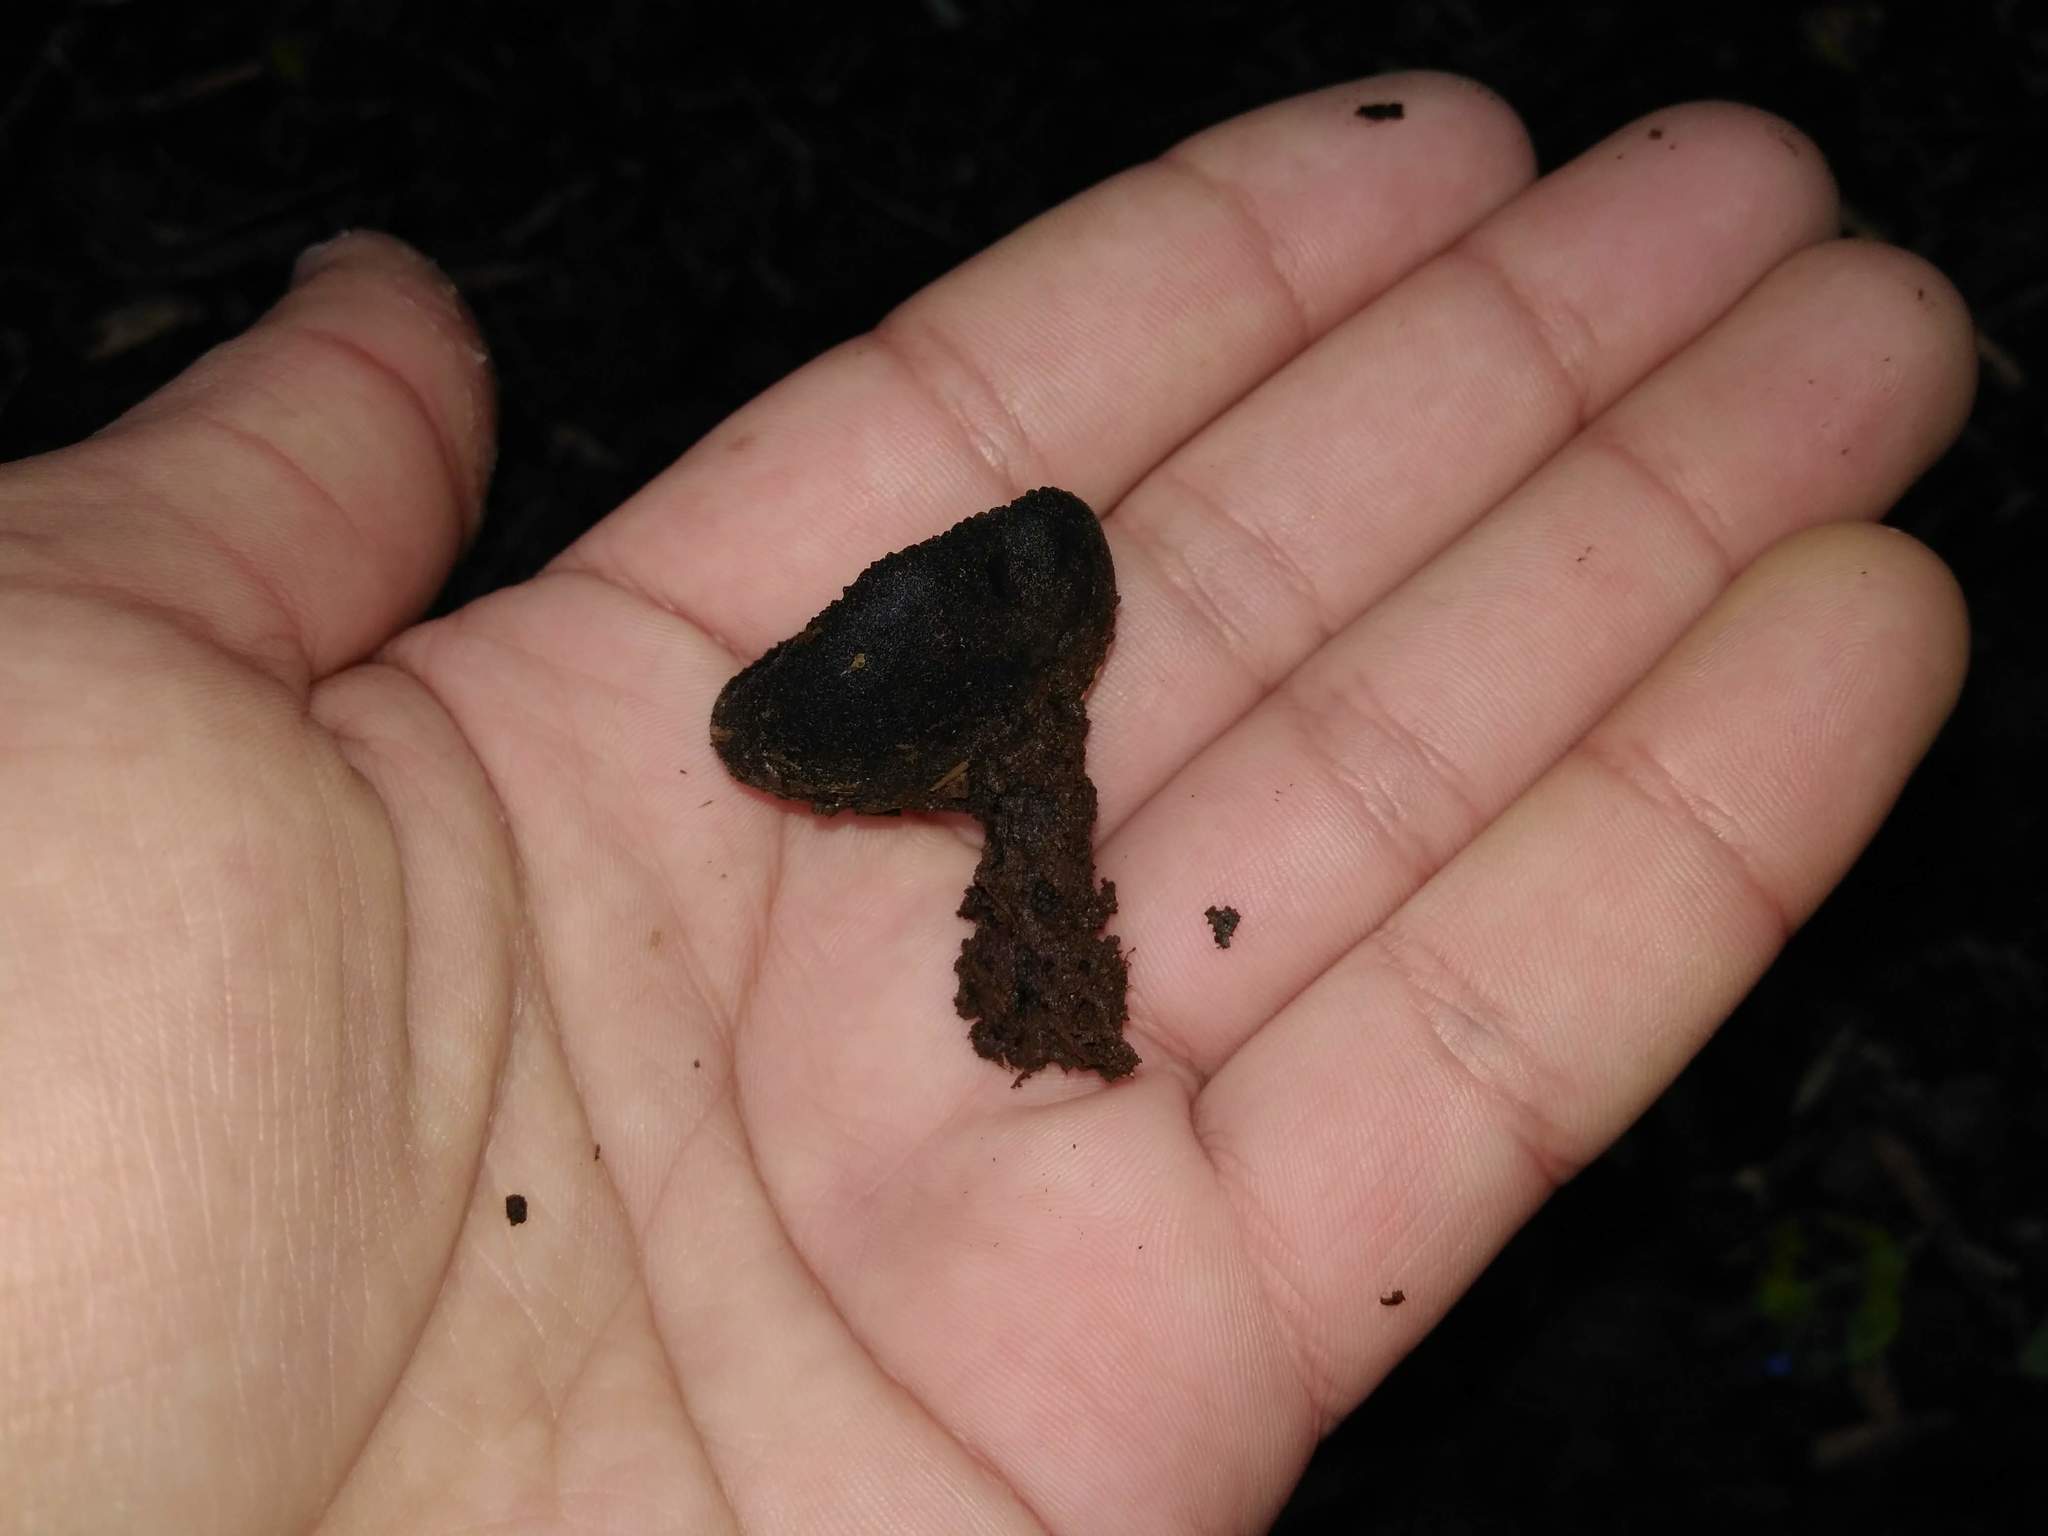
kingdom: Fungi
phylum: Ascomycota
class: Pezizomycetes
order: Pezizales
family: Sarcosomataceae
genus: Plectania
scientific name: Plectania chilensis
